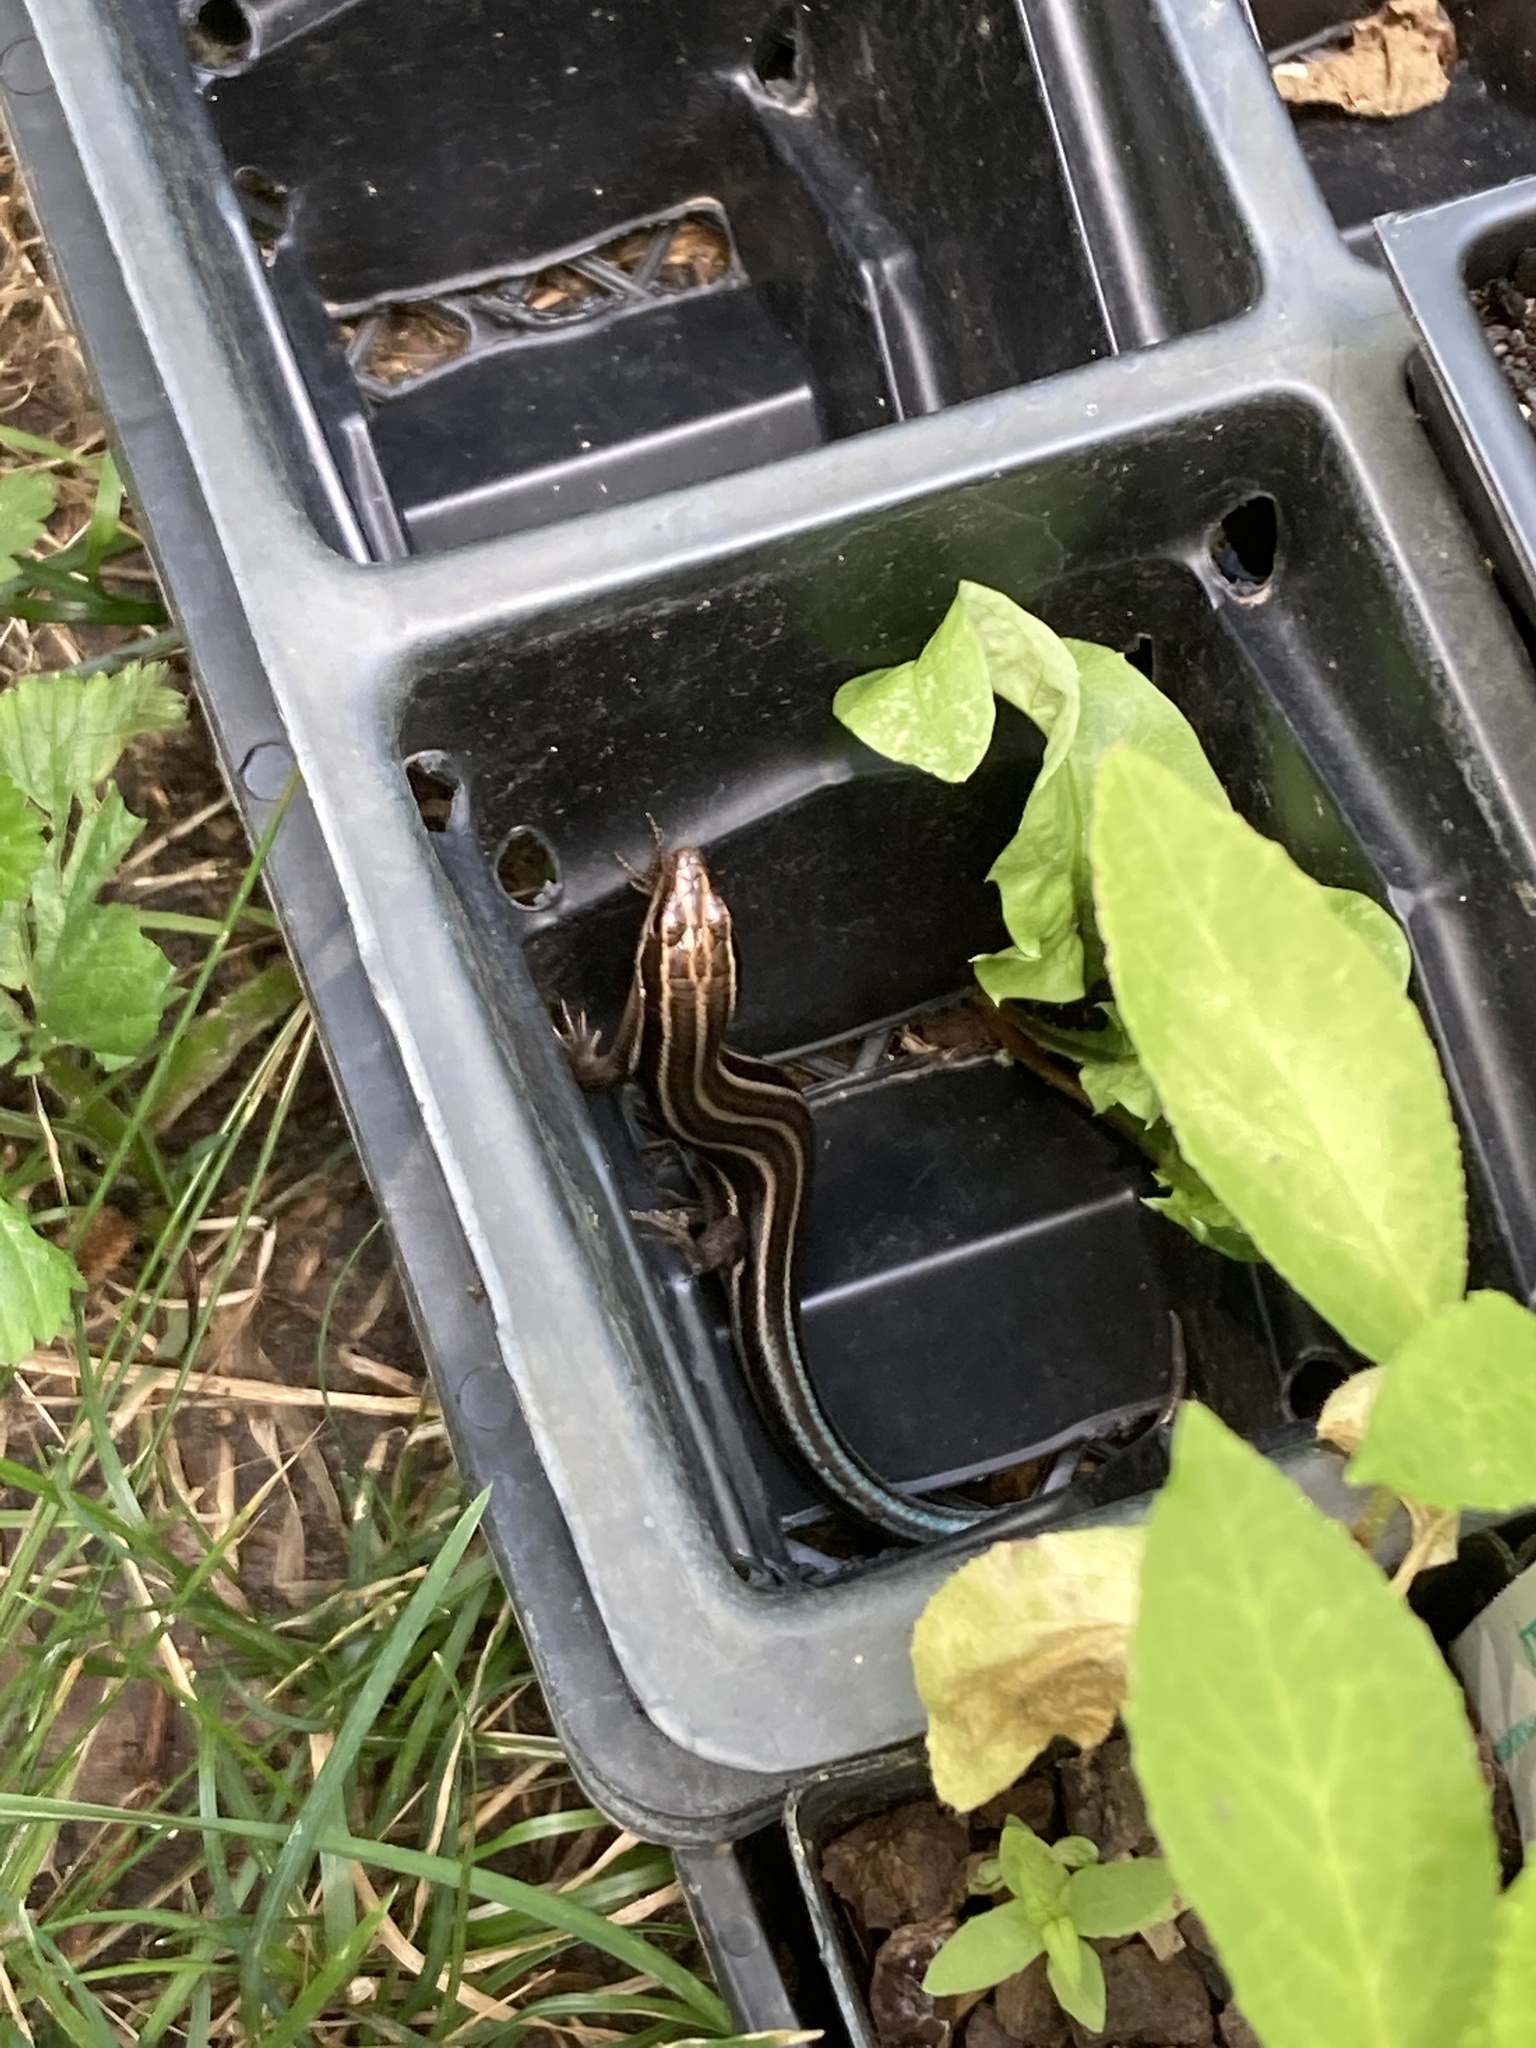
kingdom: Animalia
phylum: Chordata
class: Squamata
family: Scincidae
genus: Plestiodon
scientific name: Plestiodon fasciatus
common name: Five-lined skink
